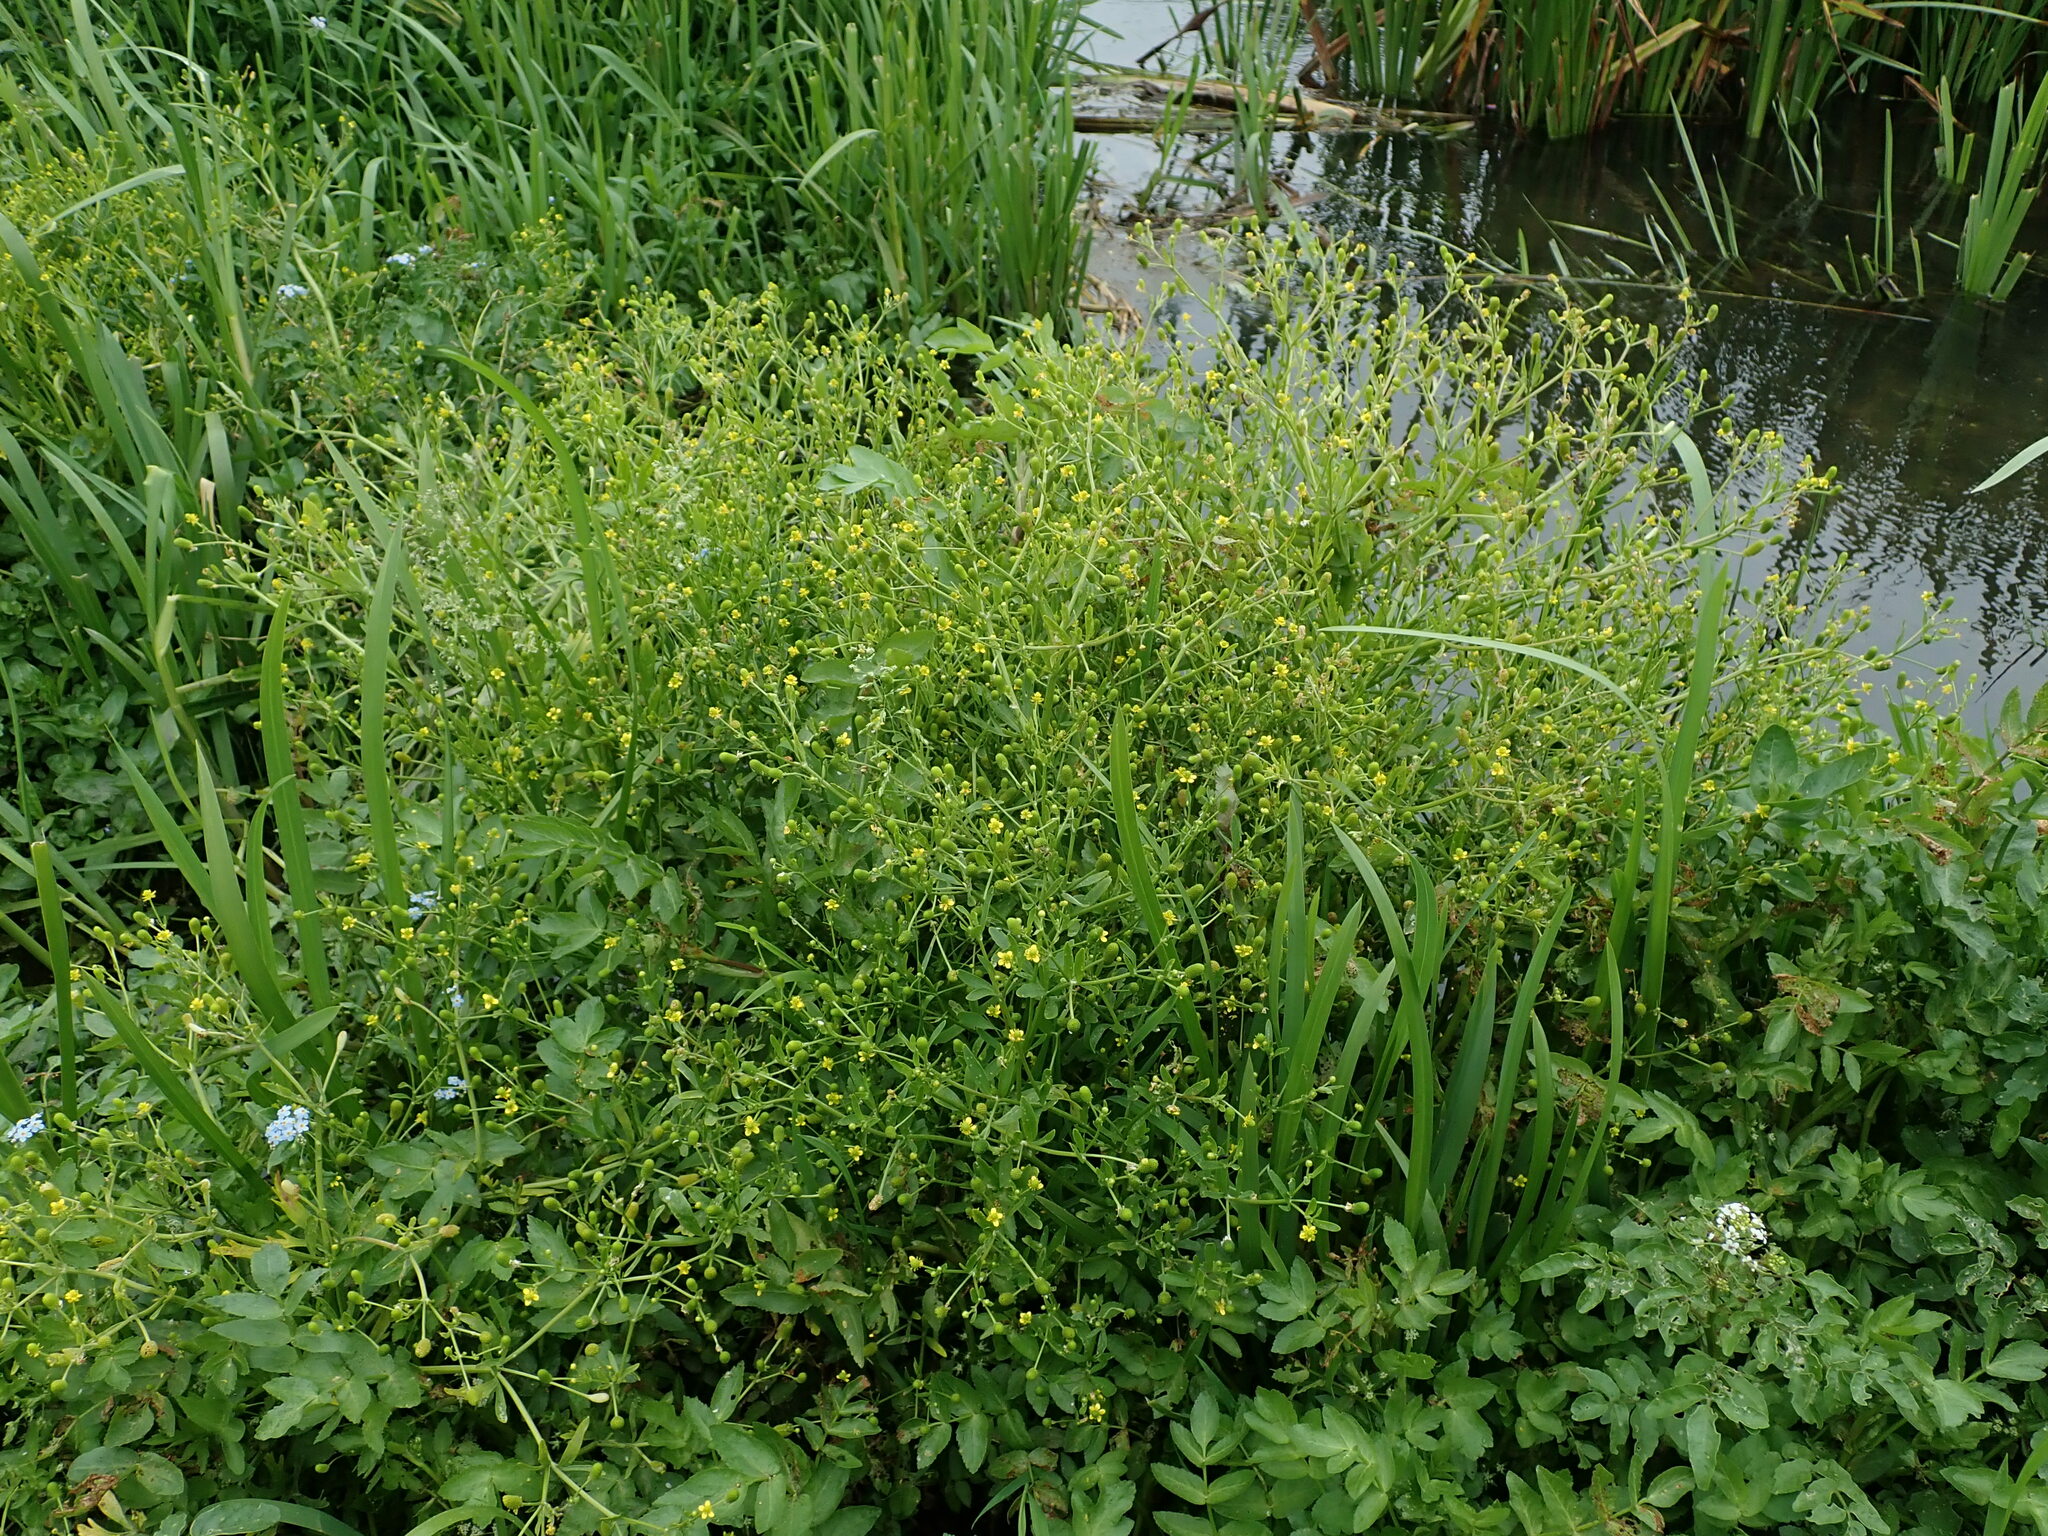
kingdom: Plantae
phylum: Tracheophyta
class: Magnoliopsida
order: Ranunculales
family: Ranunculaceae
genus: Ranunculus
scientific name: Ranunculus sceleratus
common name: Celery-leaved buttercup
